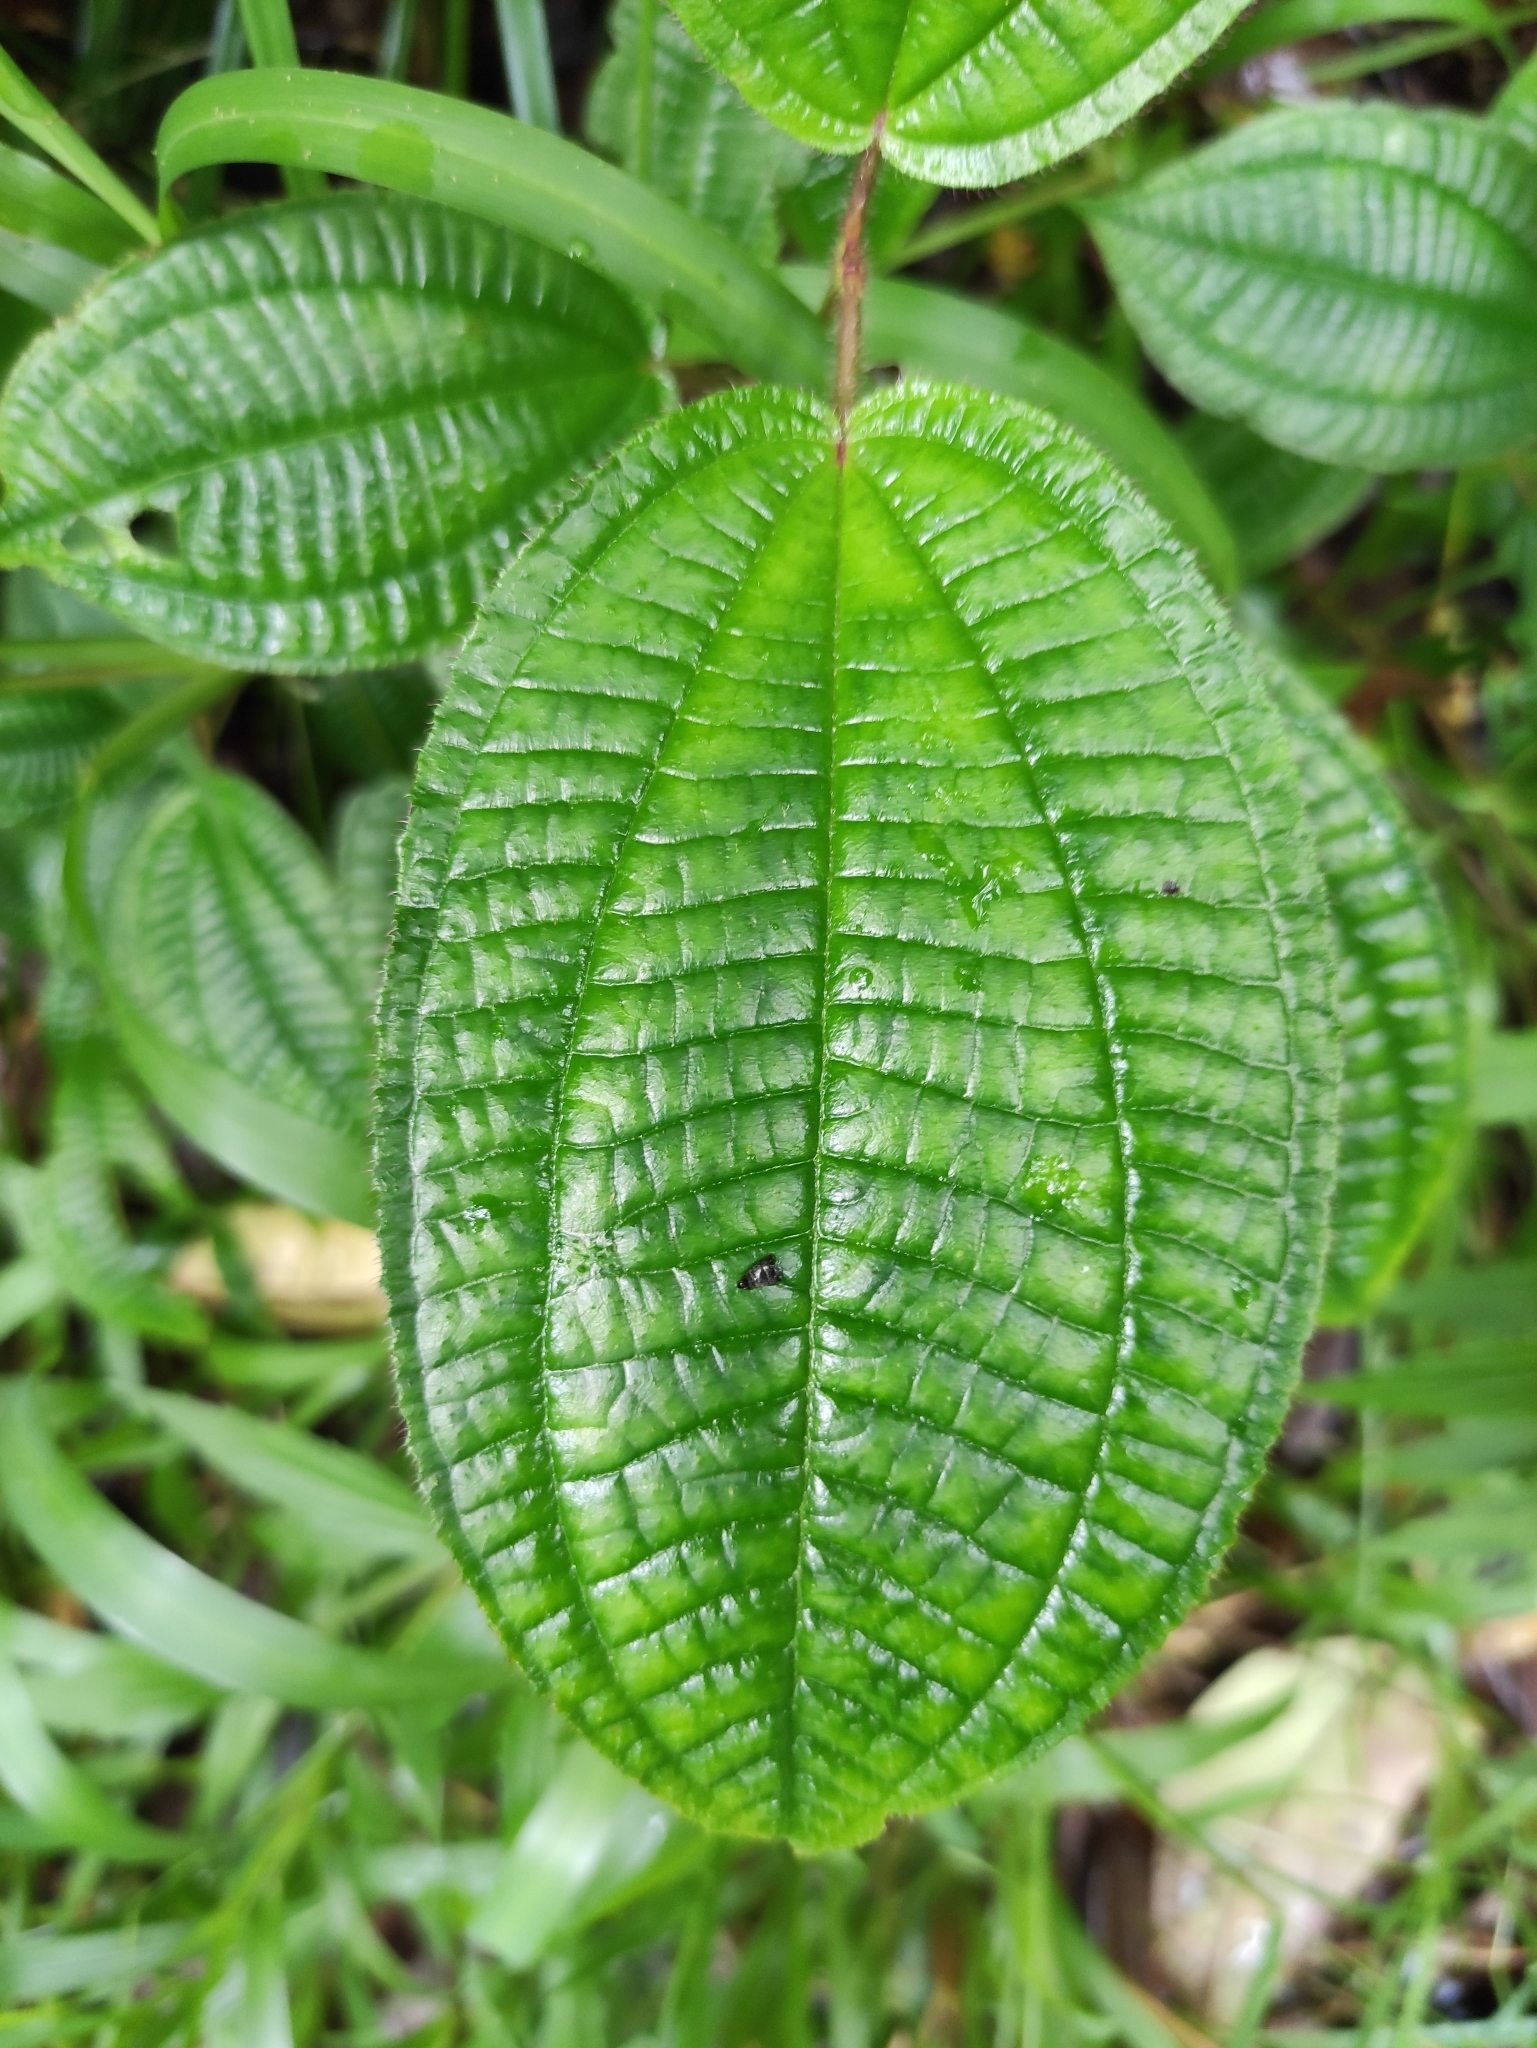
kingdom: Plantae
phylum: Tracheophyta
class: Magnoliopsida
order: Myrtales
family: Melastomataceae
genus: Miconia
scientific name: Miconia crenata
